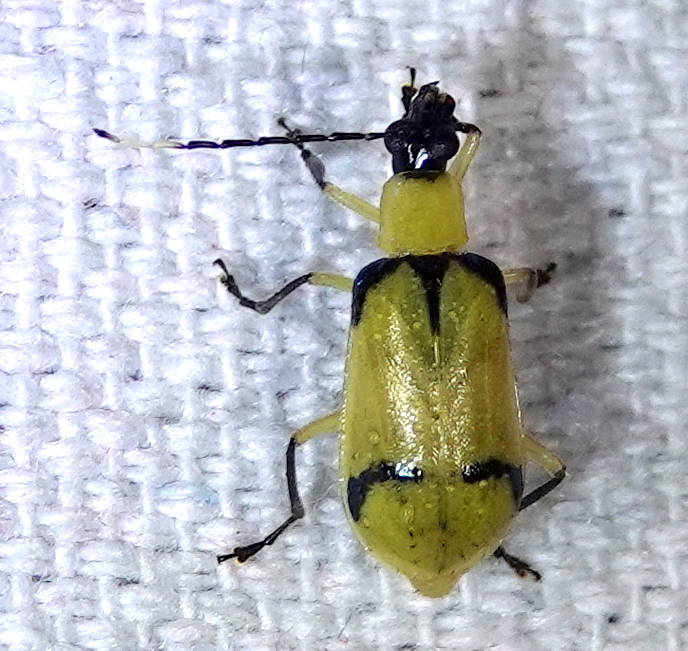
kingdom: Animalia
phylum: Arthropoda
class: Insecta
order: Coleoptera
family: Chrysomelidae
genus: Diabrotica
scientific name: Diabrotica
